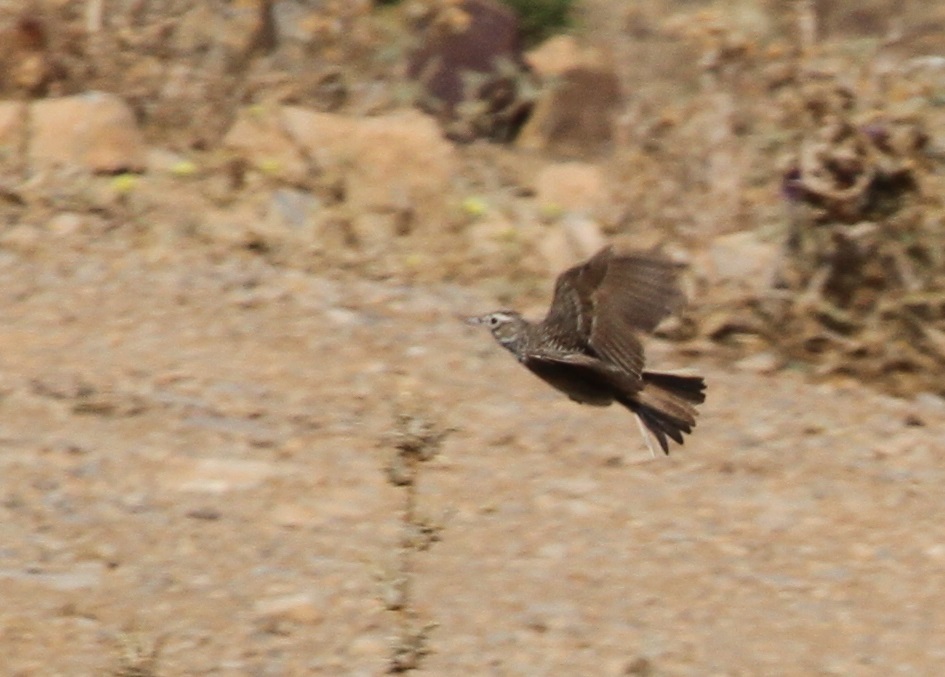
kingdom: Animalia
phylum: Chordata
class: Aves
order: Passeriformes
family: Alaudidae
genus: Alauda
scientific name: Alauda arvensis
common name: Eurasian skylark
